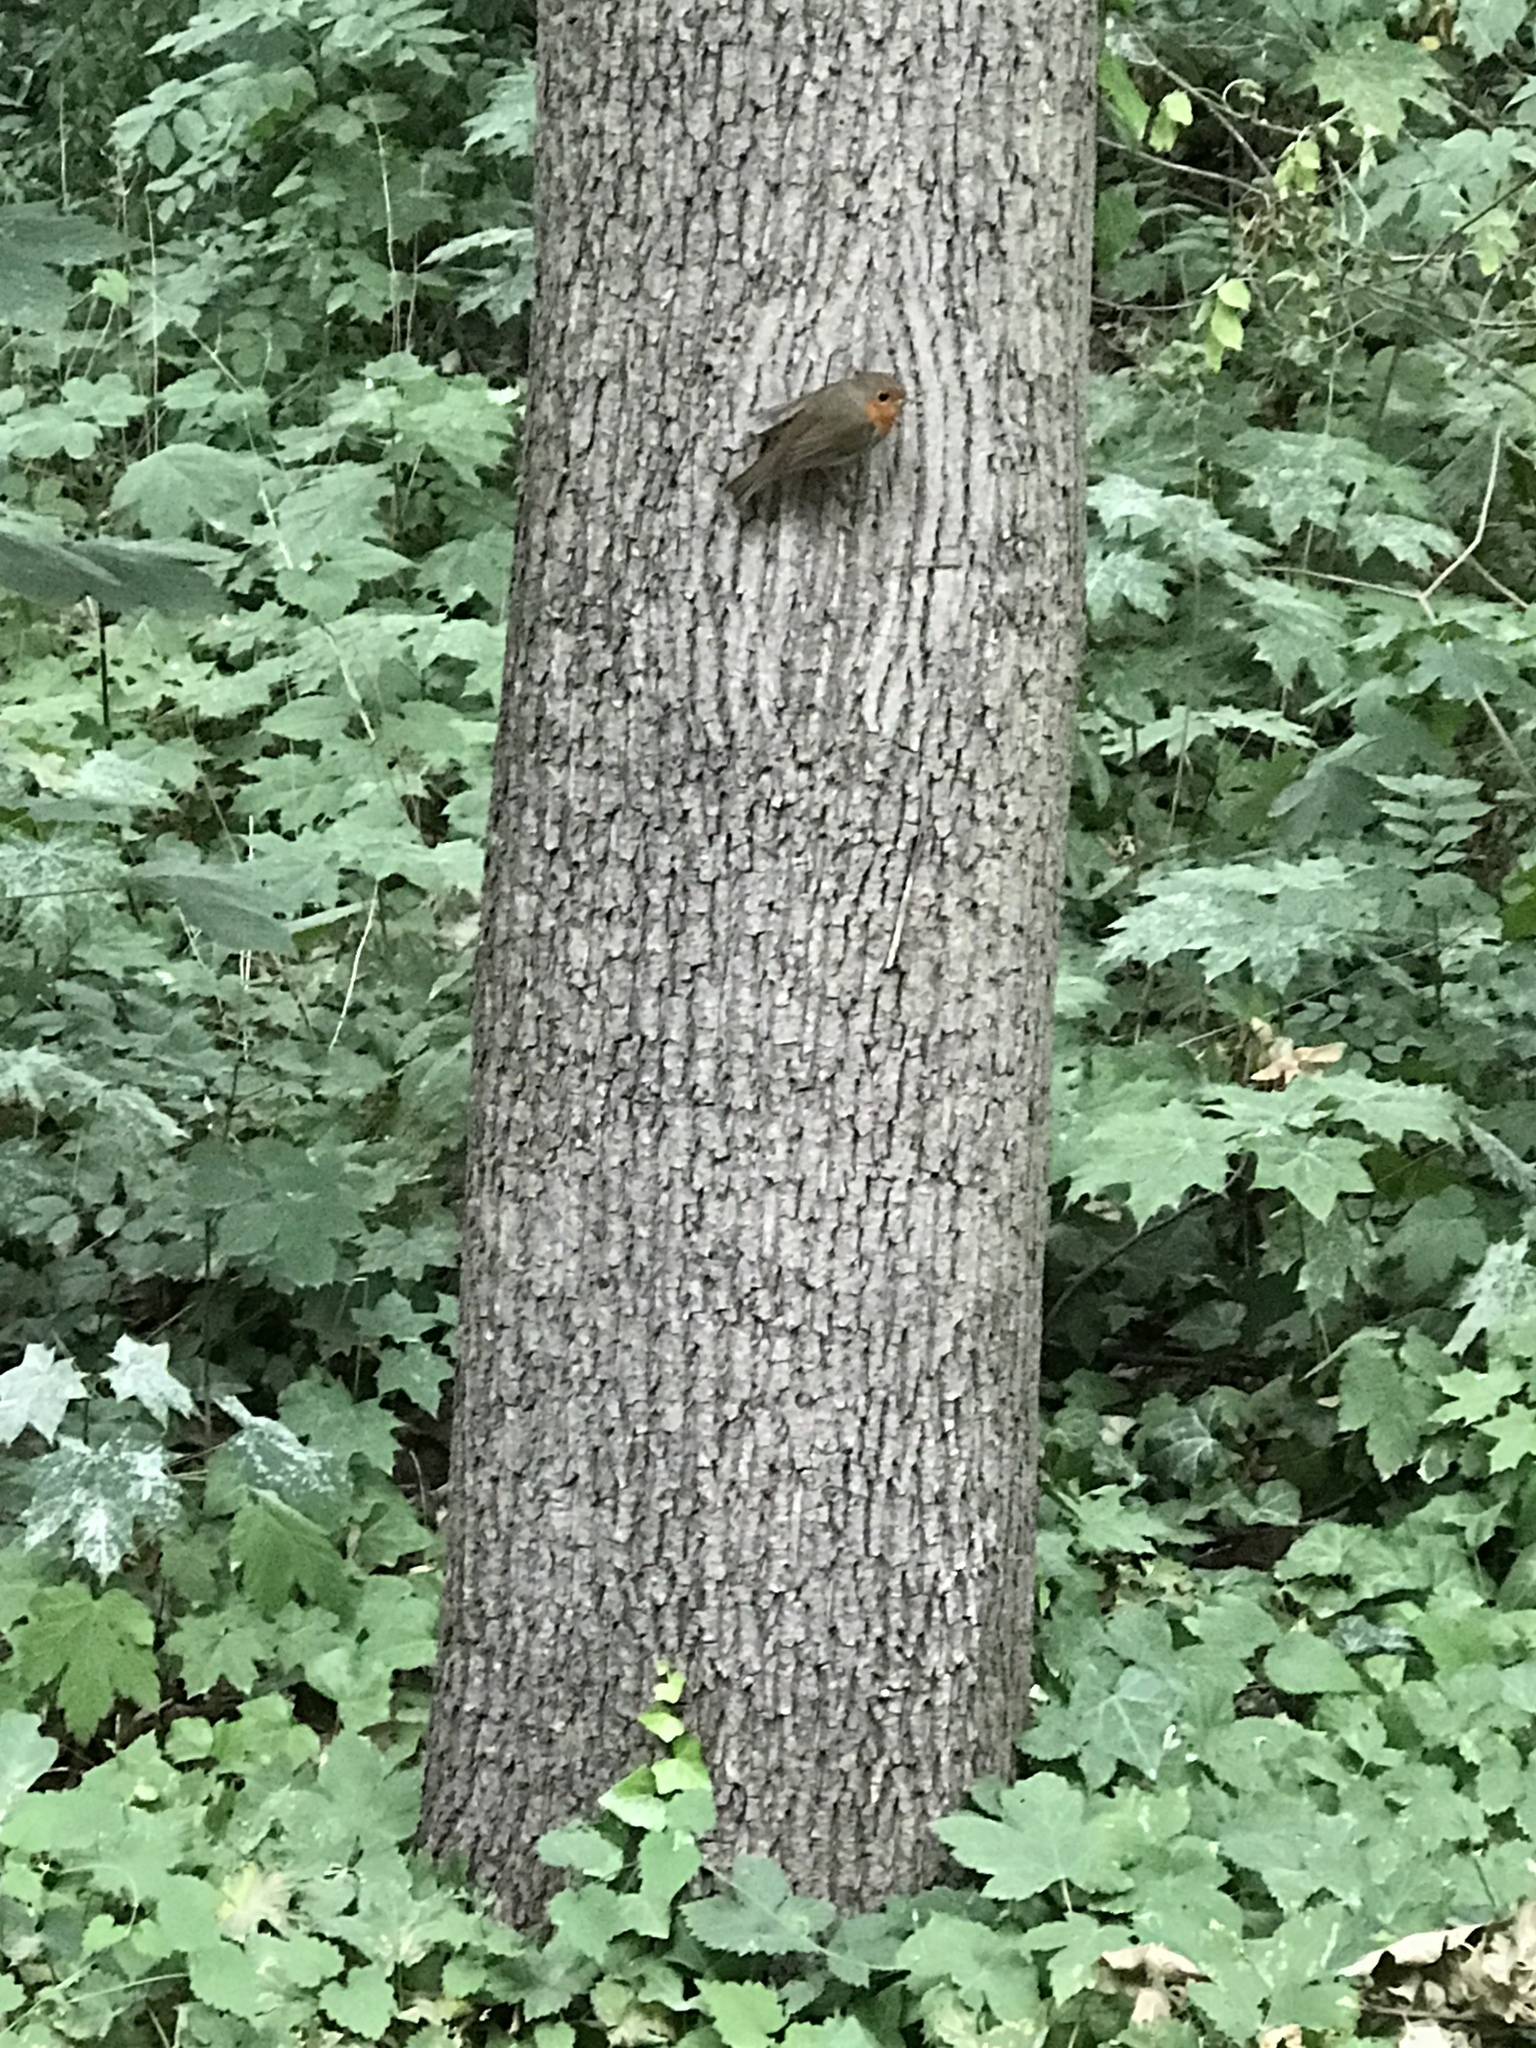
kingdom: Animalia
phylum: Chordata
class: Aves
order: Passeriformes
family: Muscicapidae
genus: Erithacus
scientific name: Erithacus rubecula
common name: European robin
